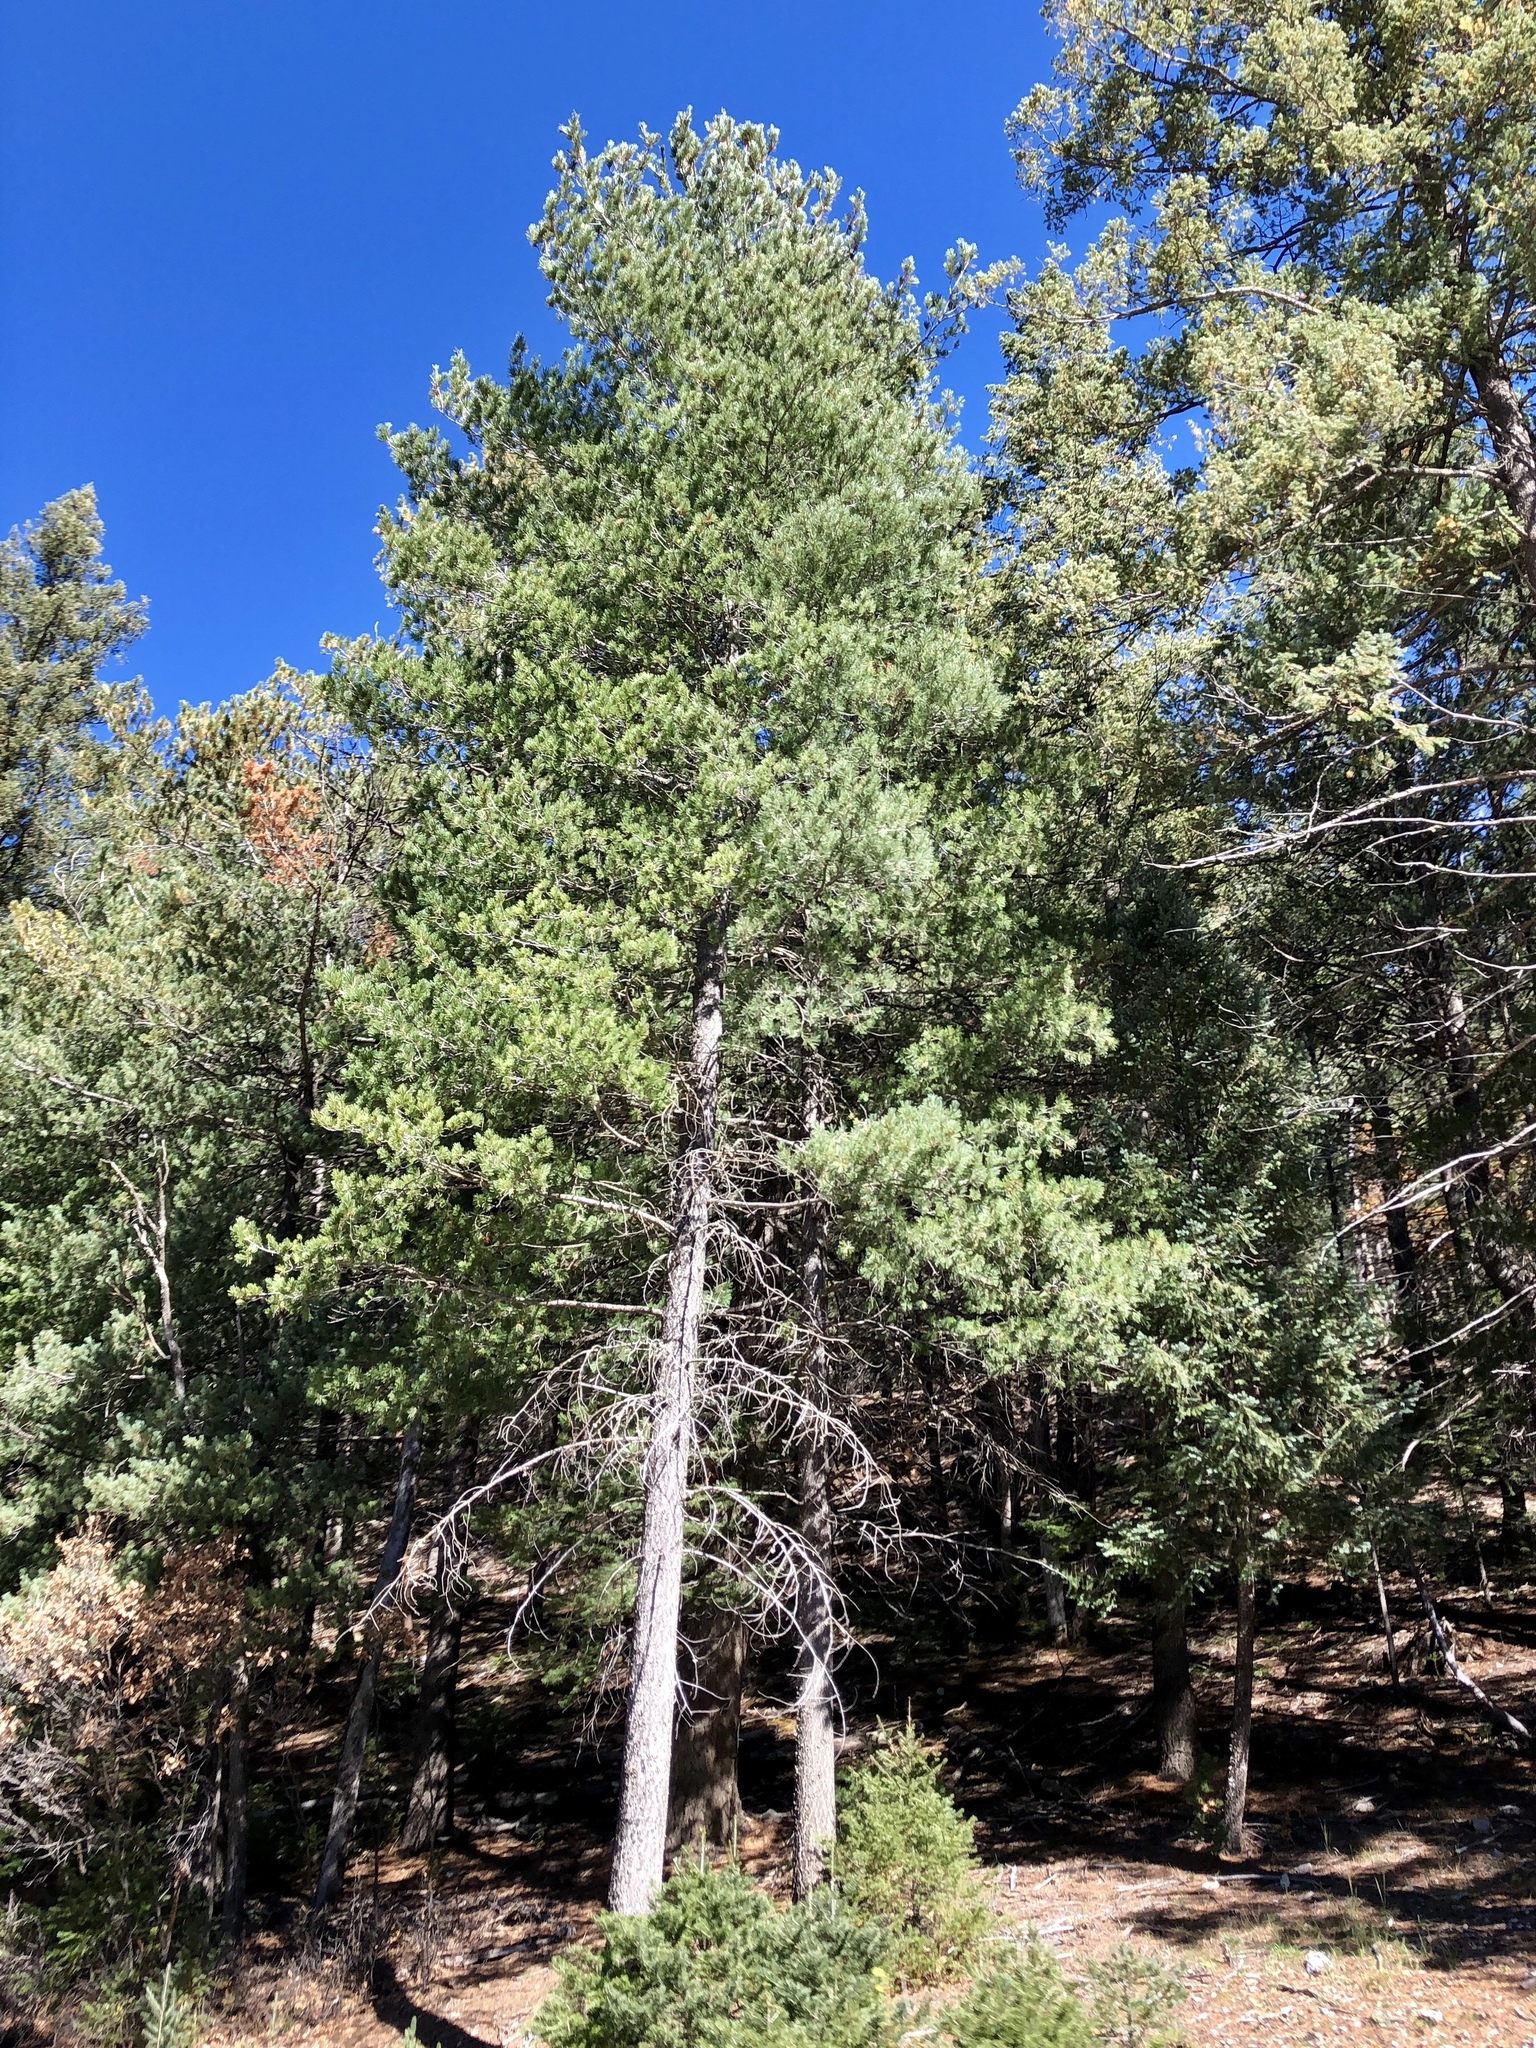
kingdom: Plantae
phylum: Tracheophyta
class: Pinopsida
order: Pinales
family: Pinaceae
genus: Pinus
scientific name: Pinus strobiformis
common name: Southwestern white pine
